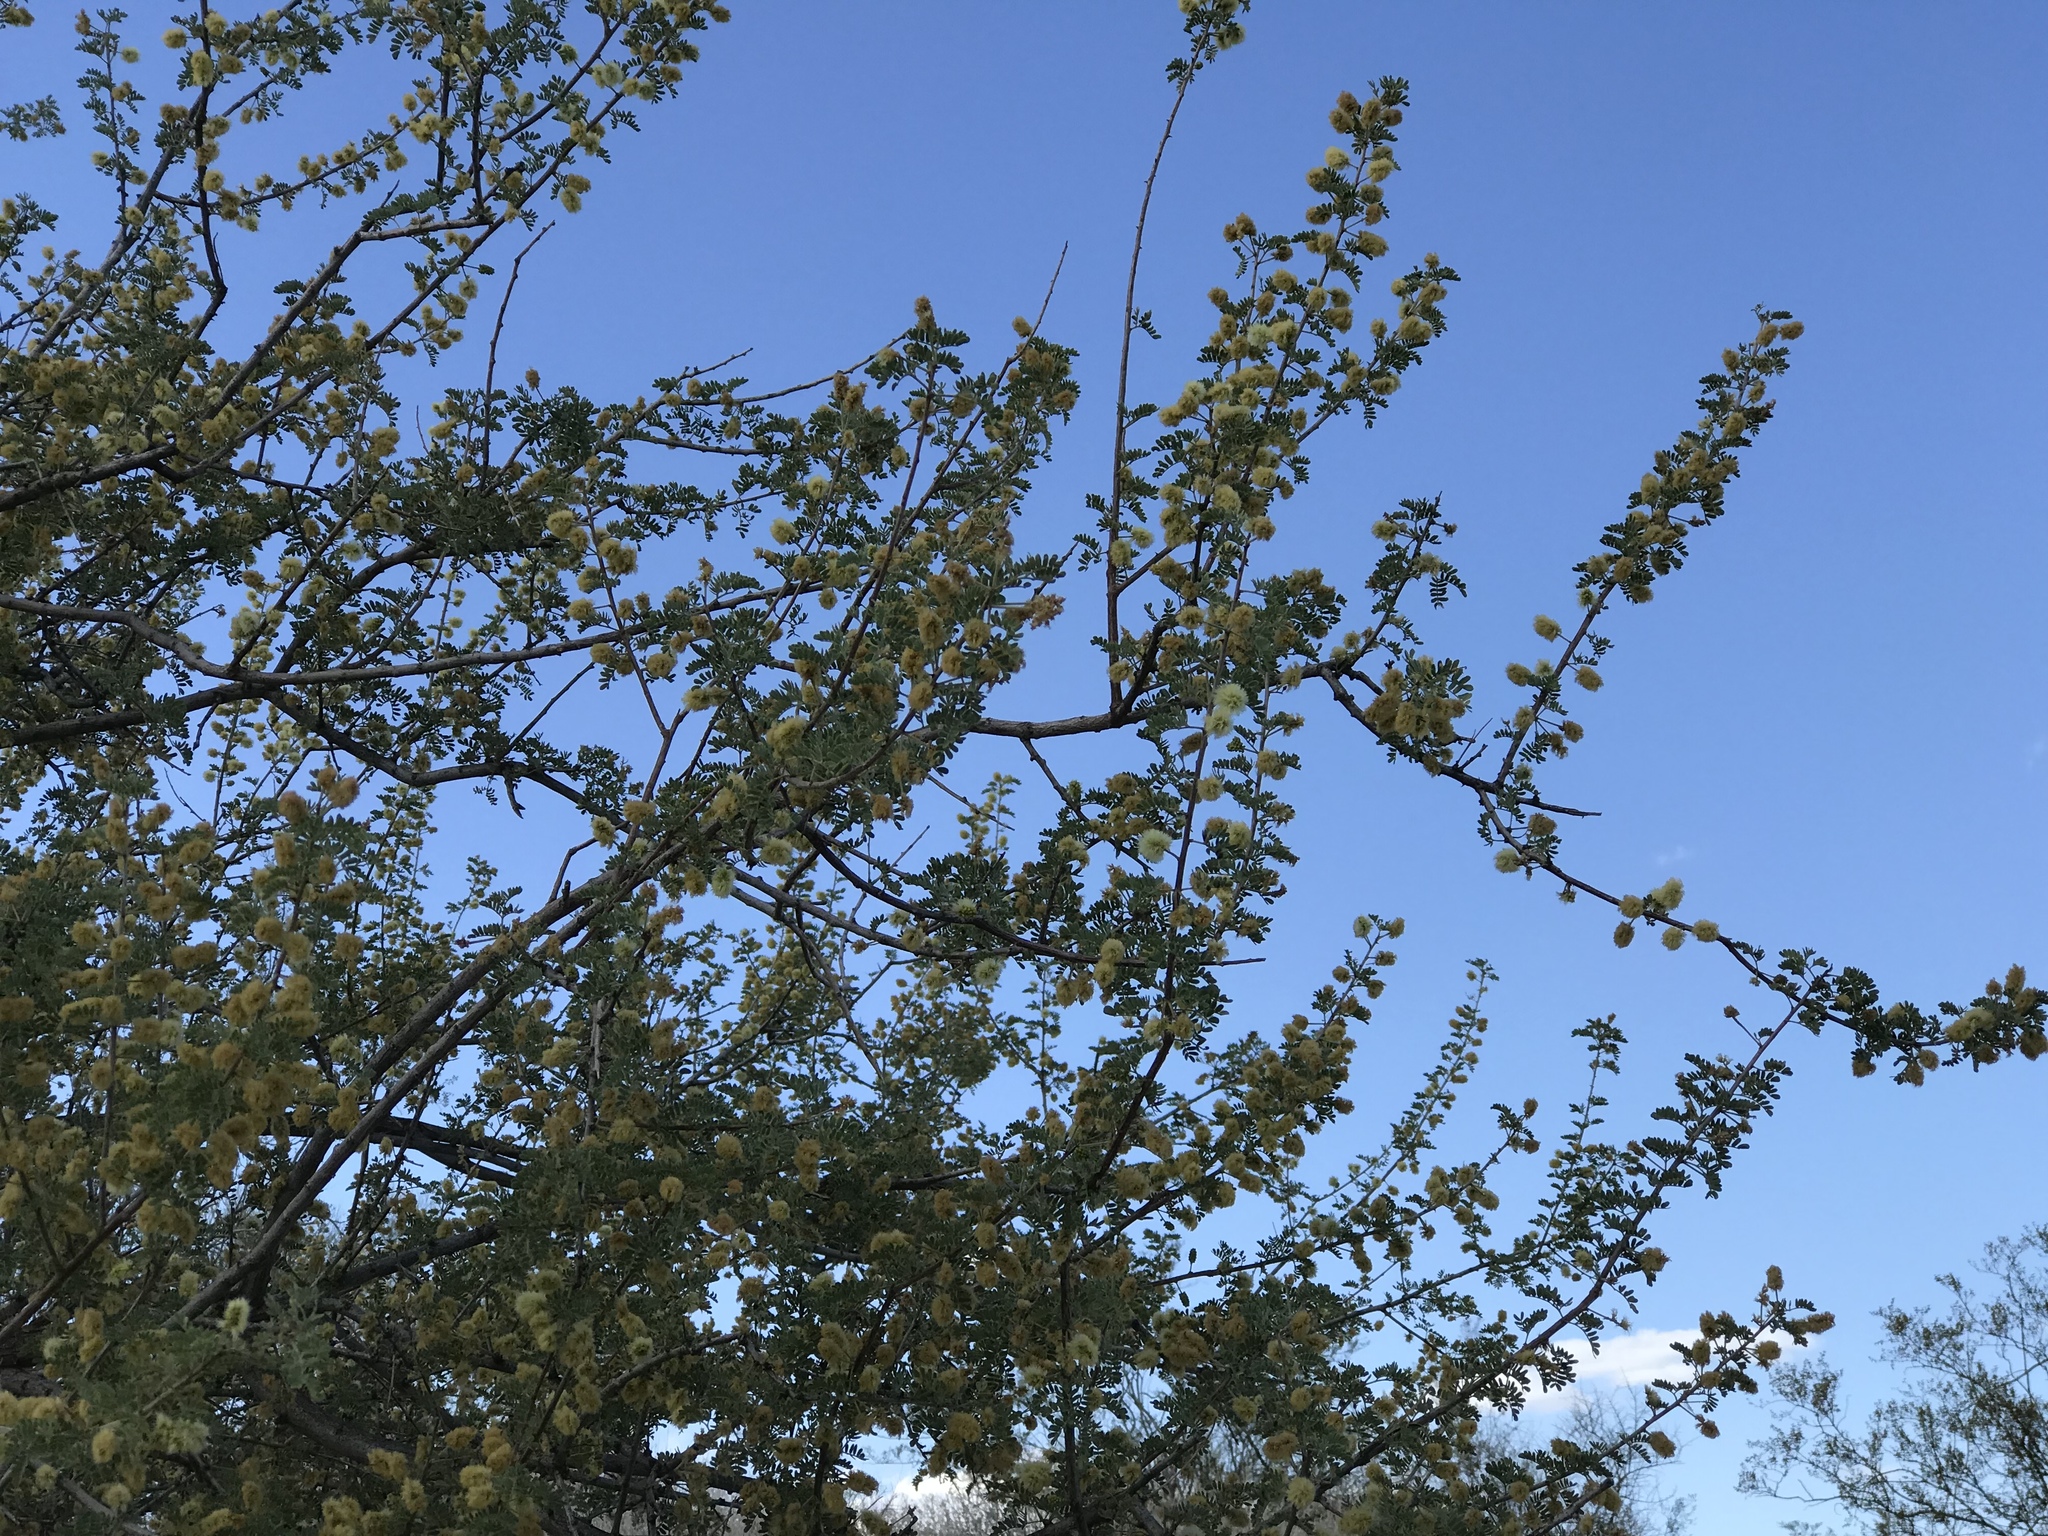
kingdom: Plantae
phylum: Tracheophyta
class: Magnoliopsida
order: Fabales
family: Fabaceae
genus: Senegalia
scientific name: Senegalia greggii
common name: Texas-mimosa
